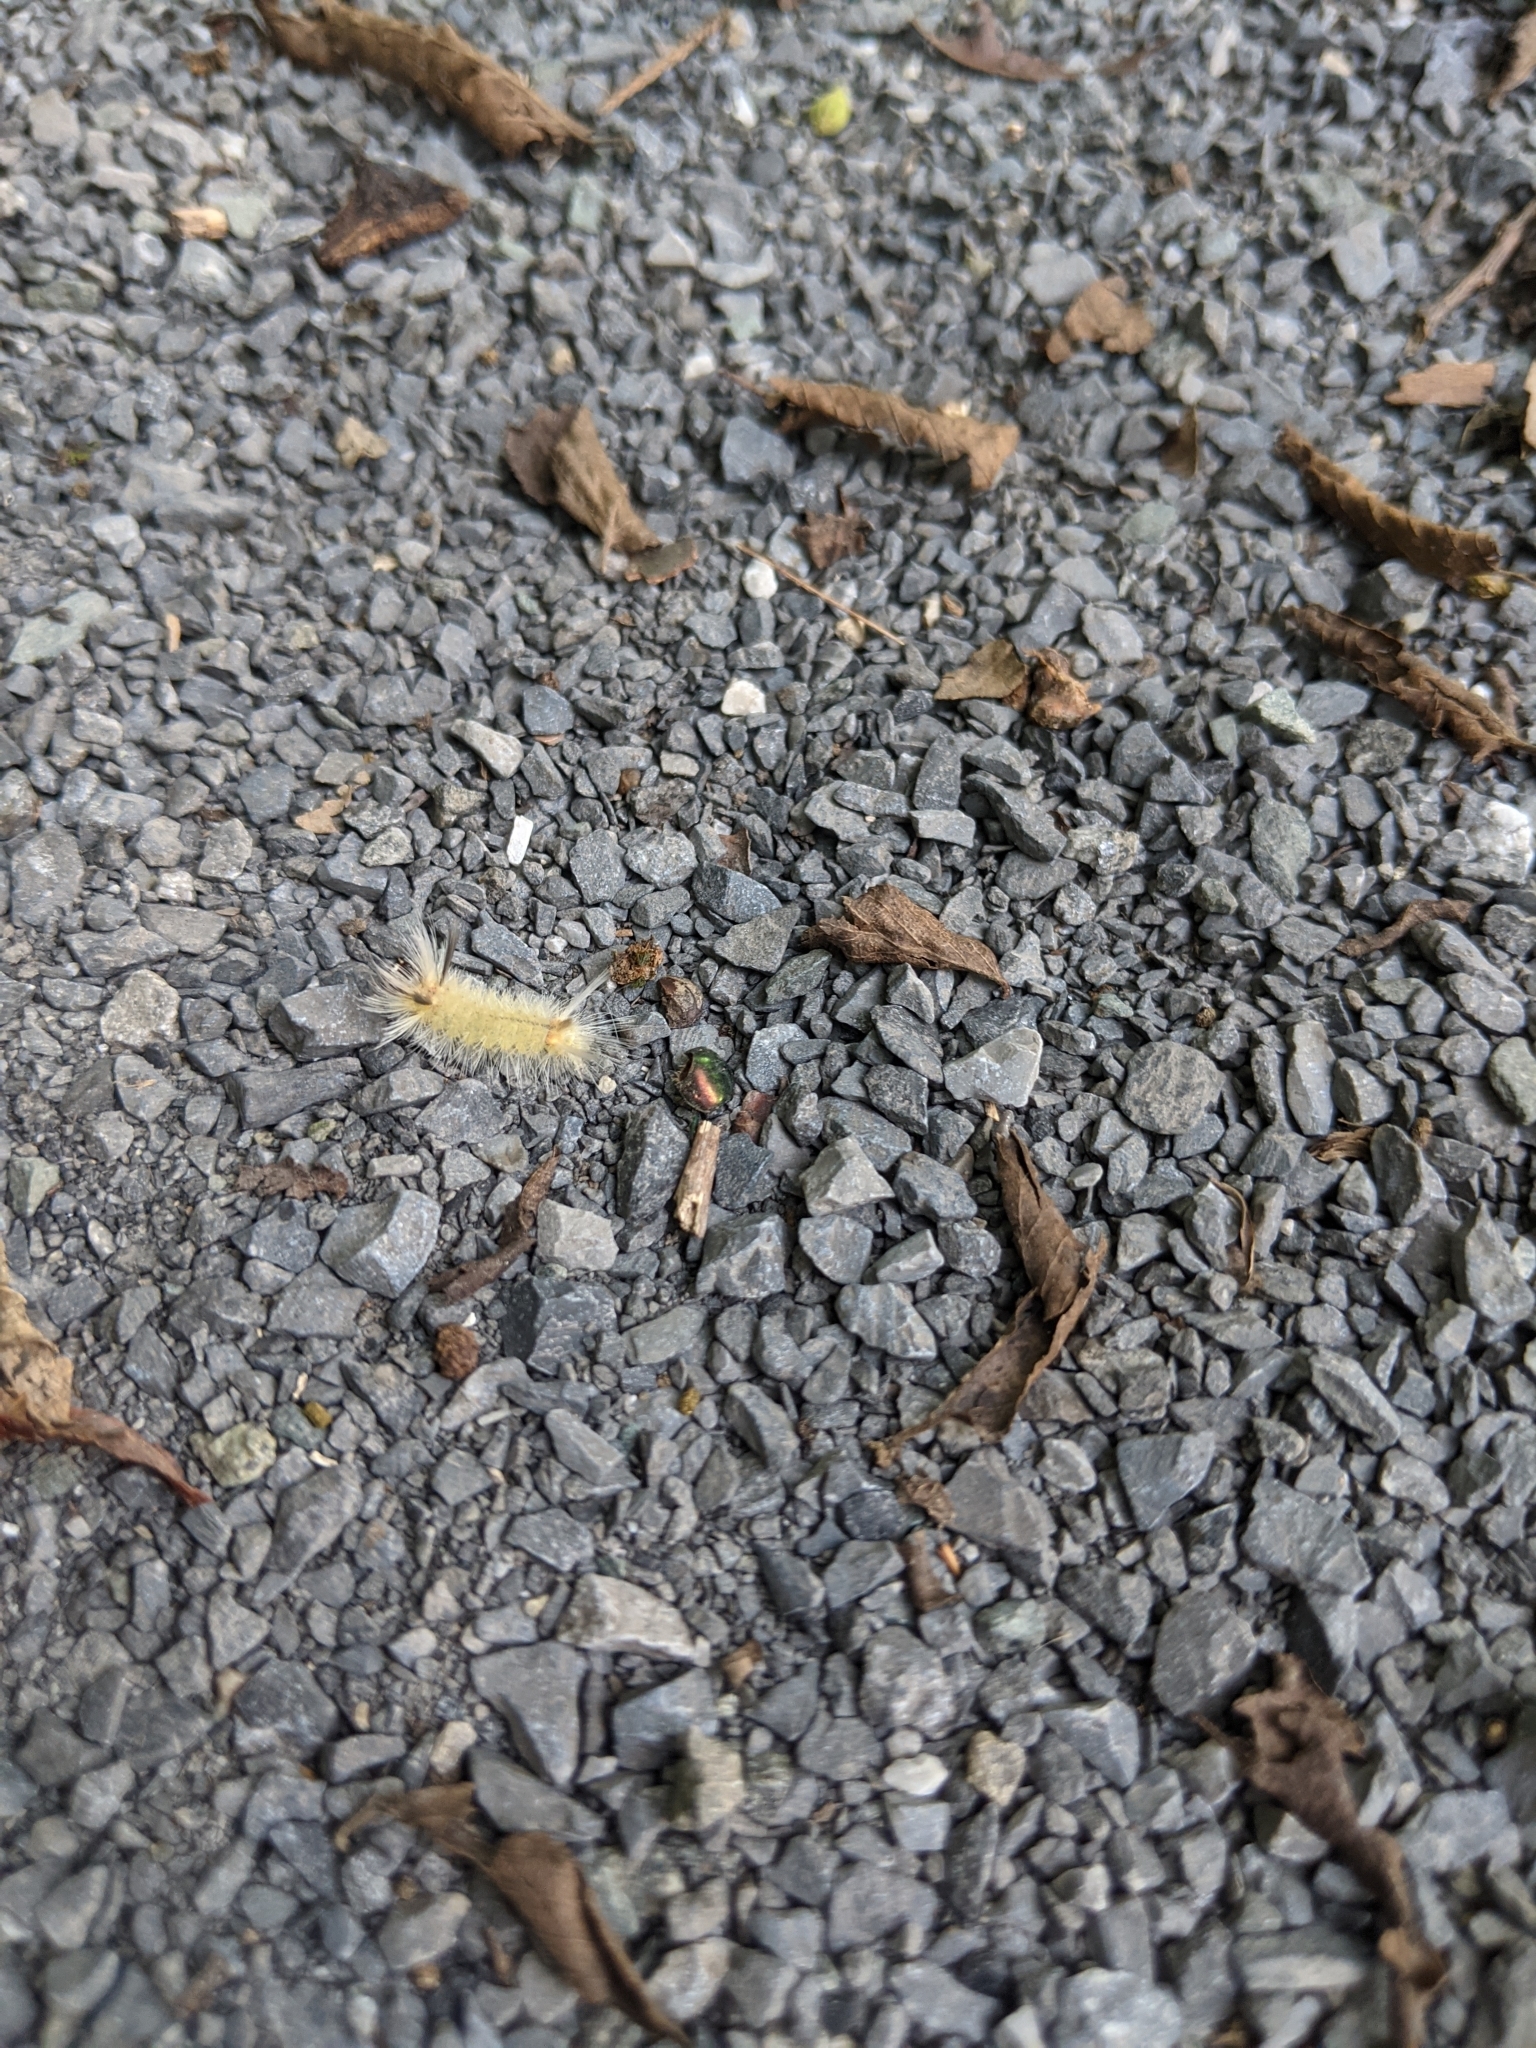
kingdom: Animalia
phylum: Arthropoda
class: Insecta
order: Lepidoptera
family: Erebidae
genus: Halysidota
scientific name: Halysidota tessellaris
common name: Banded tussock moth
